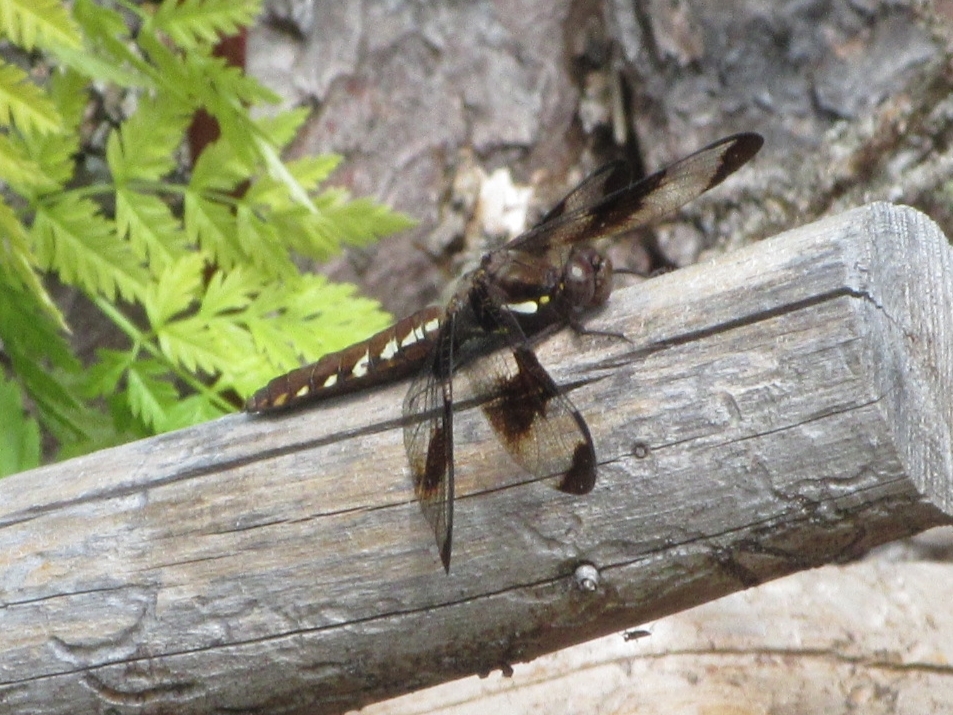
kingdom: Animalia
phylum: Arthropoda
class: Insecta
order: Odonata
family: Libellulidae
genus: Plathemis
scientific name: Plathemis lydia
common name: Common whitetail
